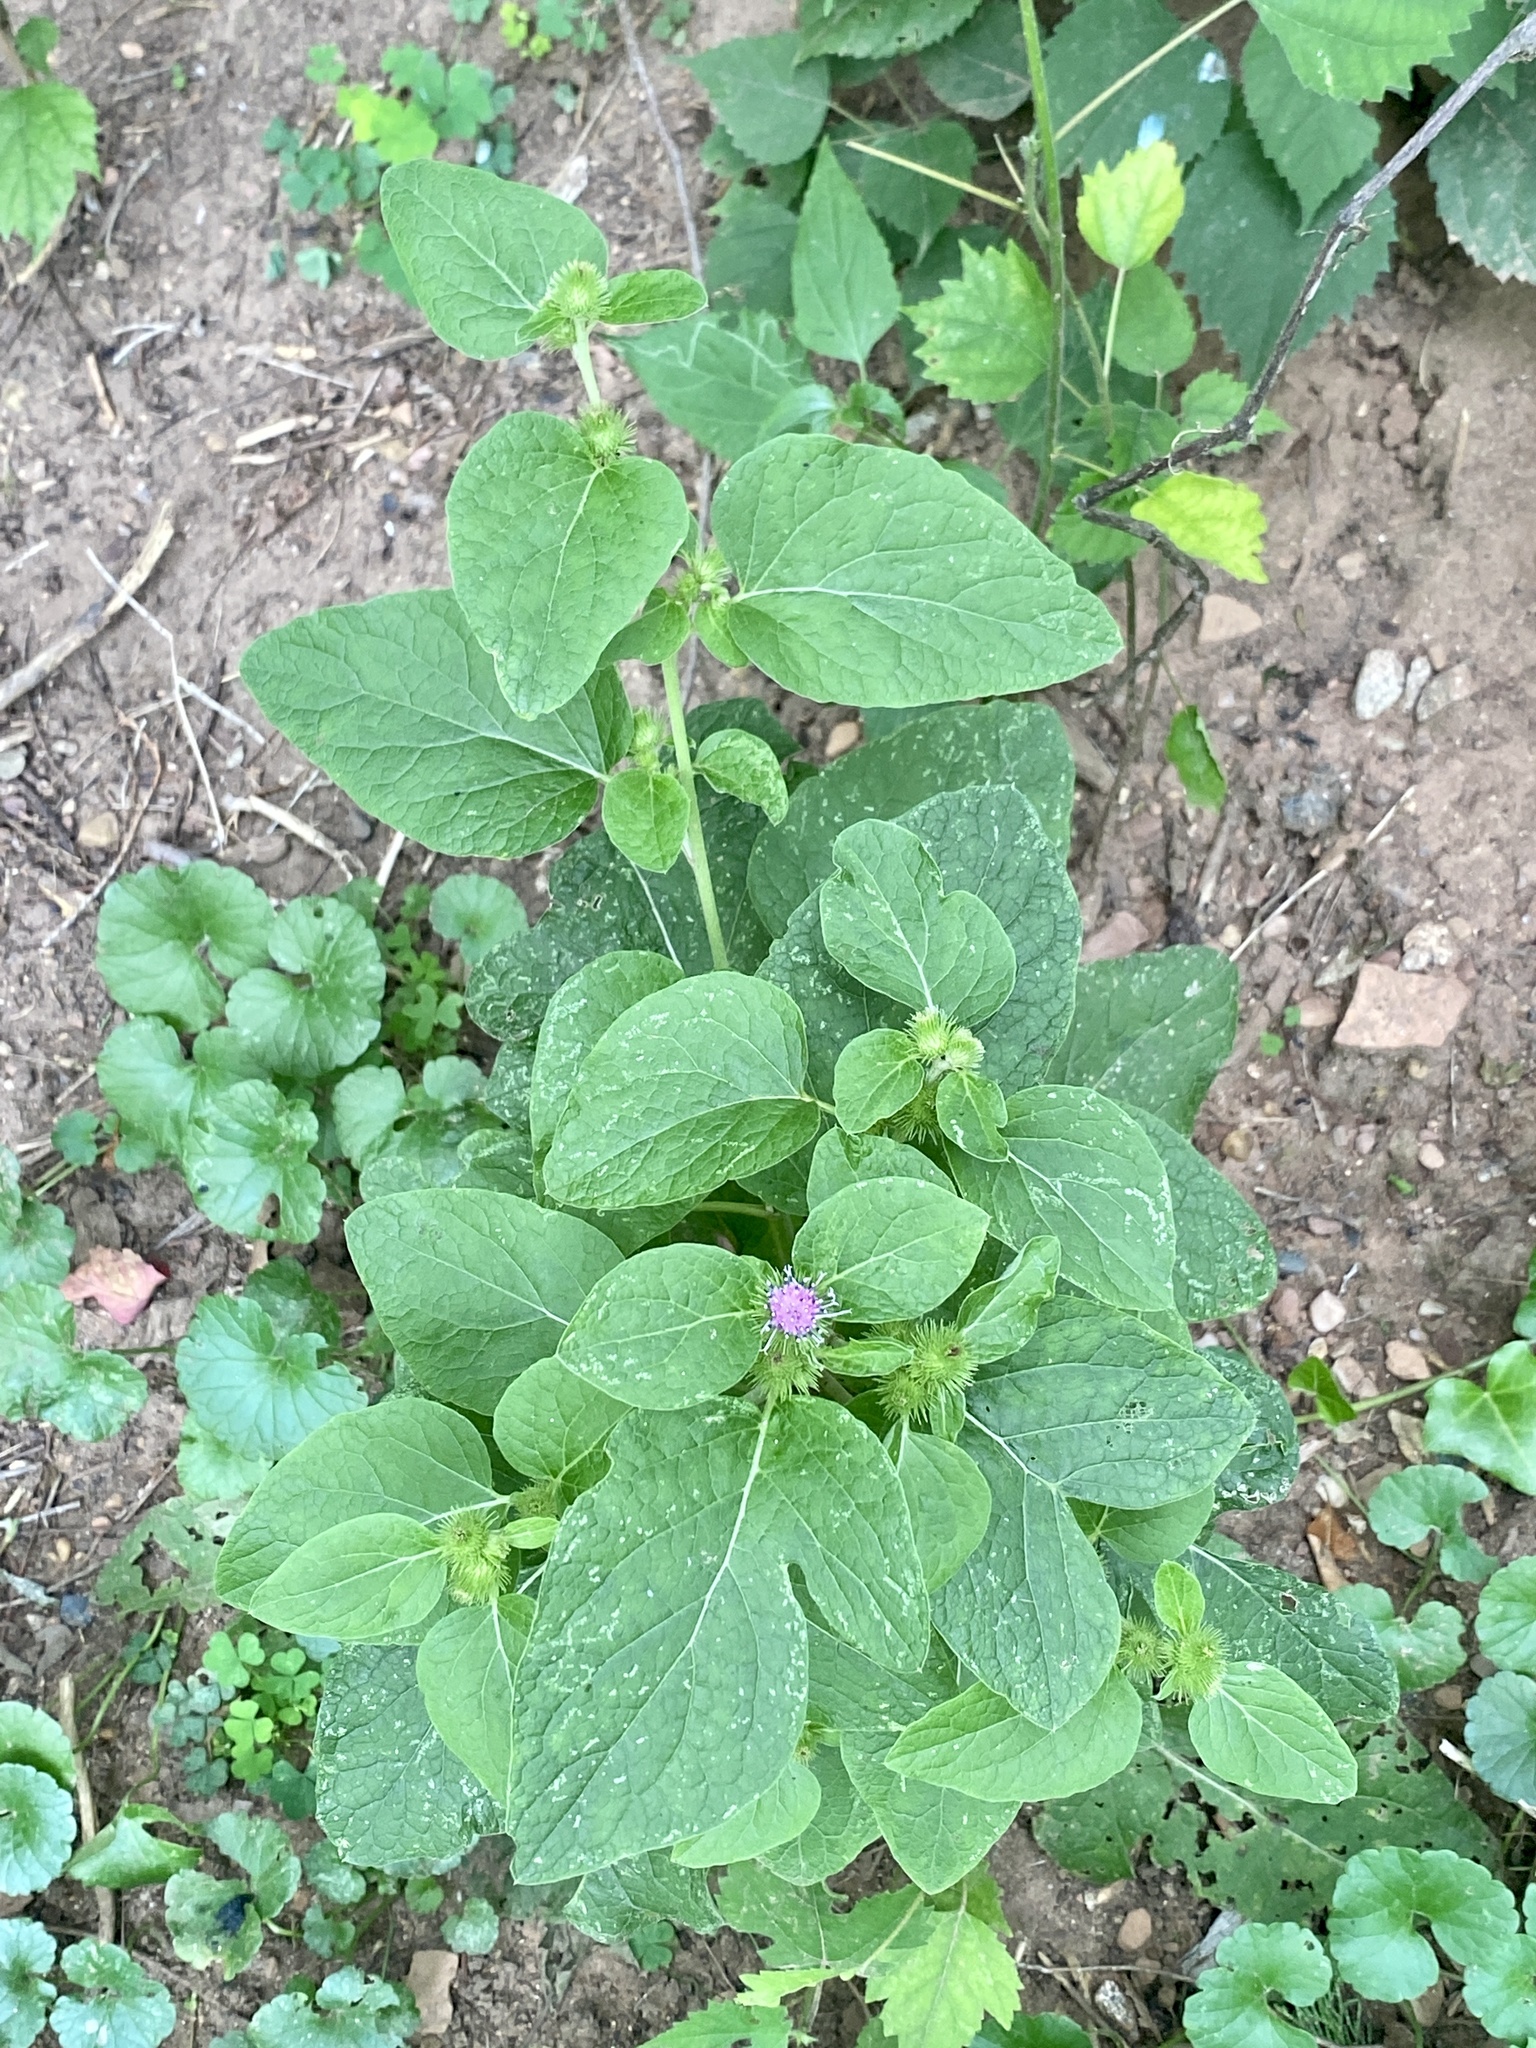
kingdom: Plantae
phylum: Tracheophyta
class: Magnoliopsida
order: Asterales
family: Asteraceae
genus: Arctium
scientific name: Arctium minus
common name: Lesser burdock
